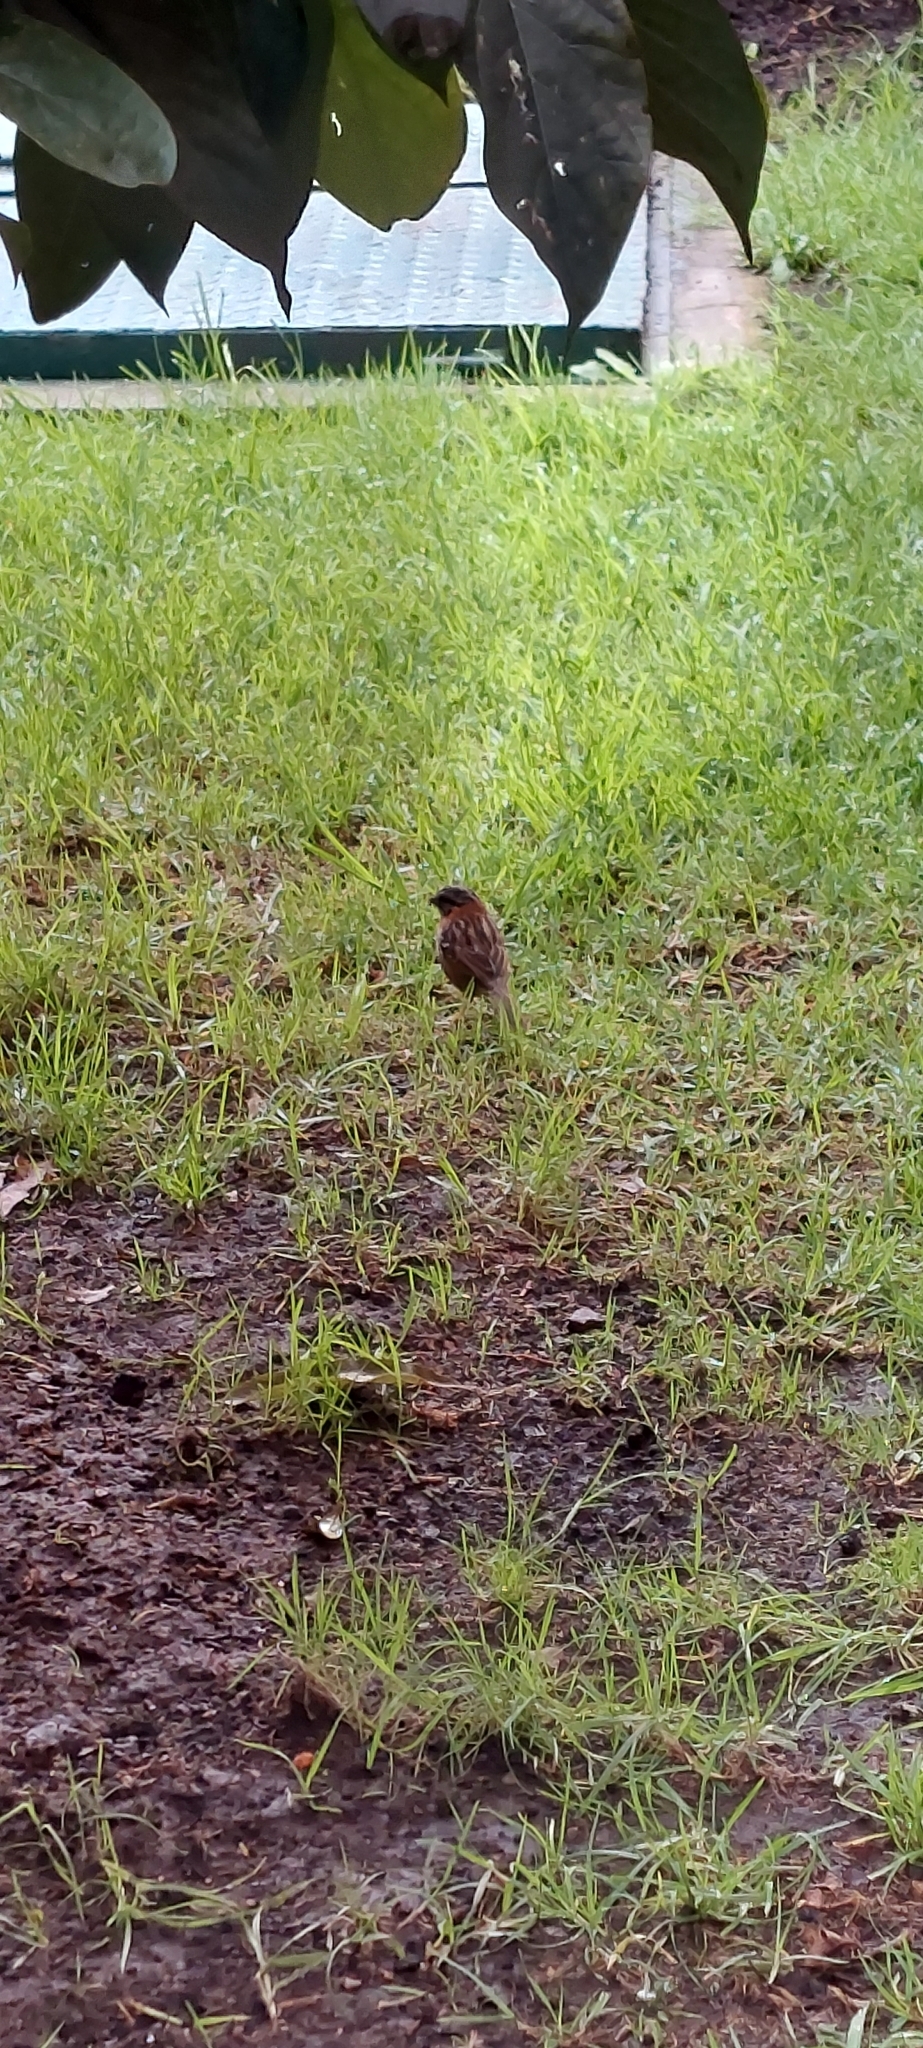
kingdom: Animalia
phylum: Chordata
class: Aves
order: Passeriformes
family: Passerellidae
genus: Zonotrichia
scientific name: Zonotrichia capensis
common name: Rufous-collared sparrow
